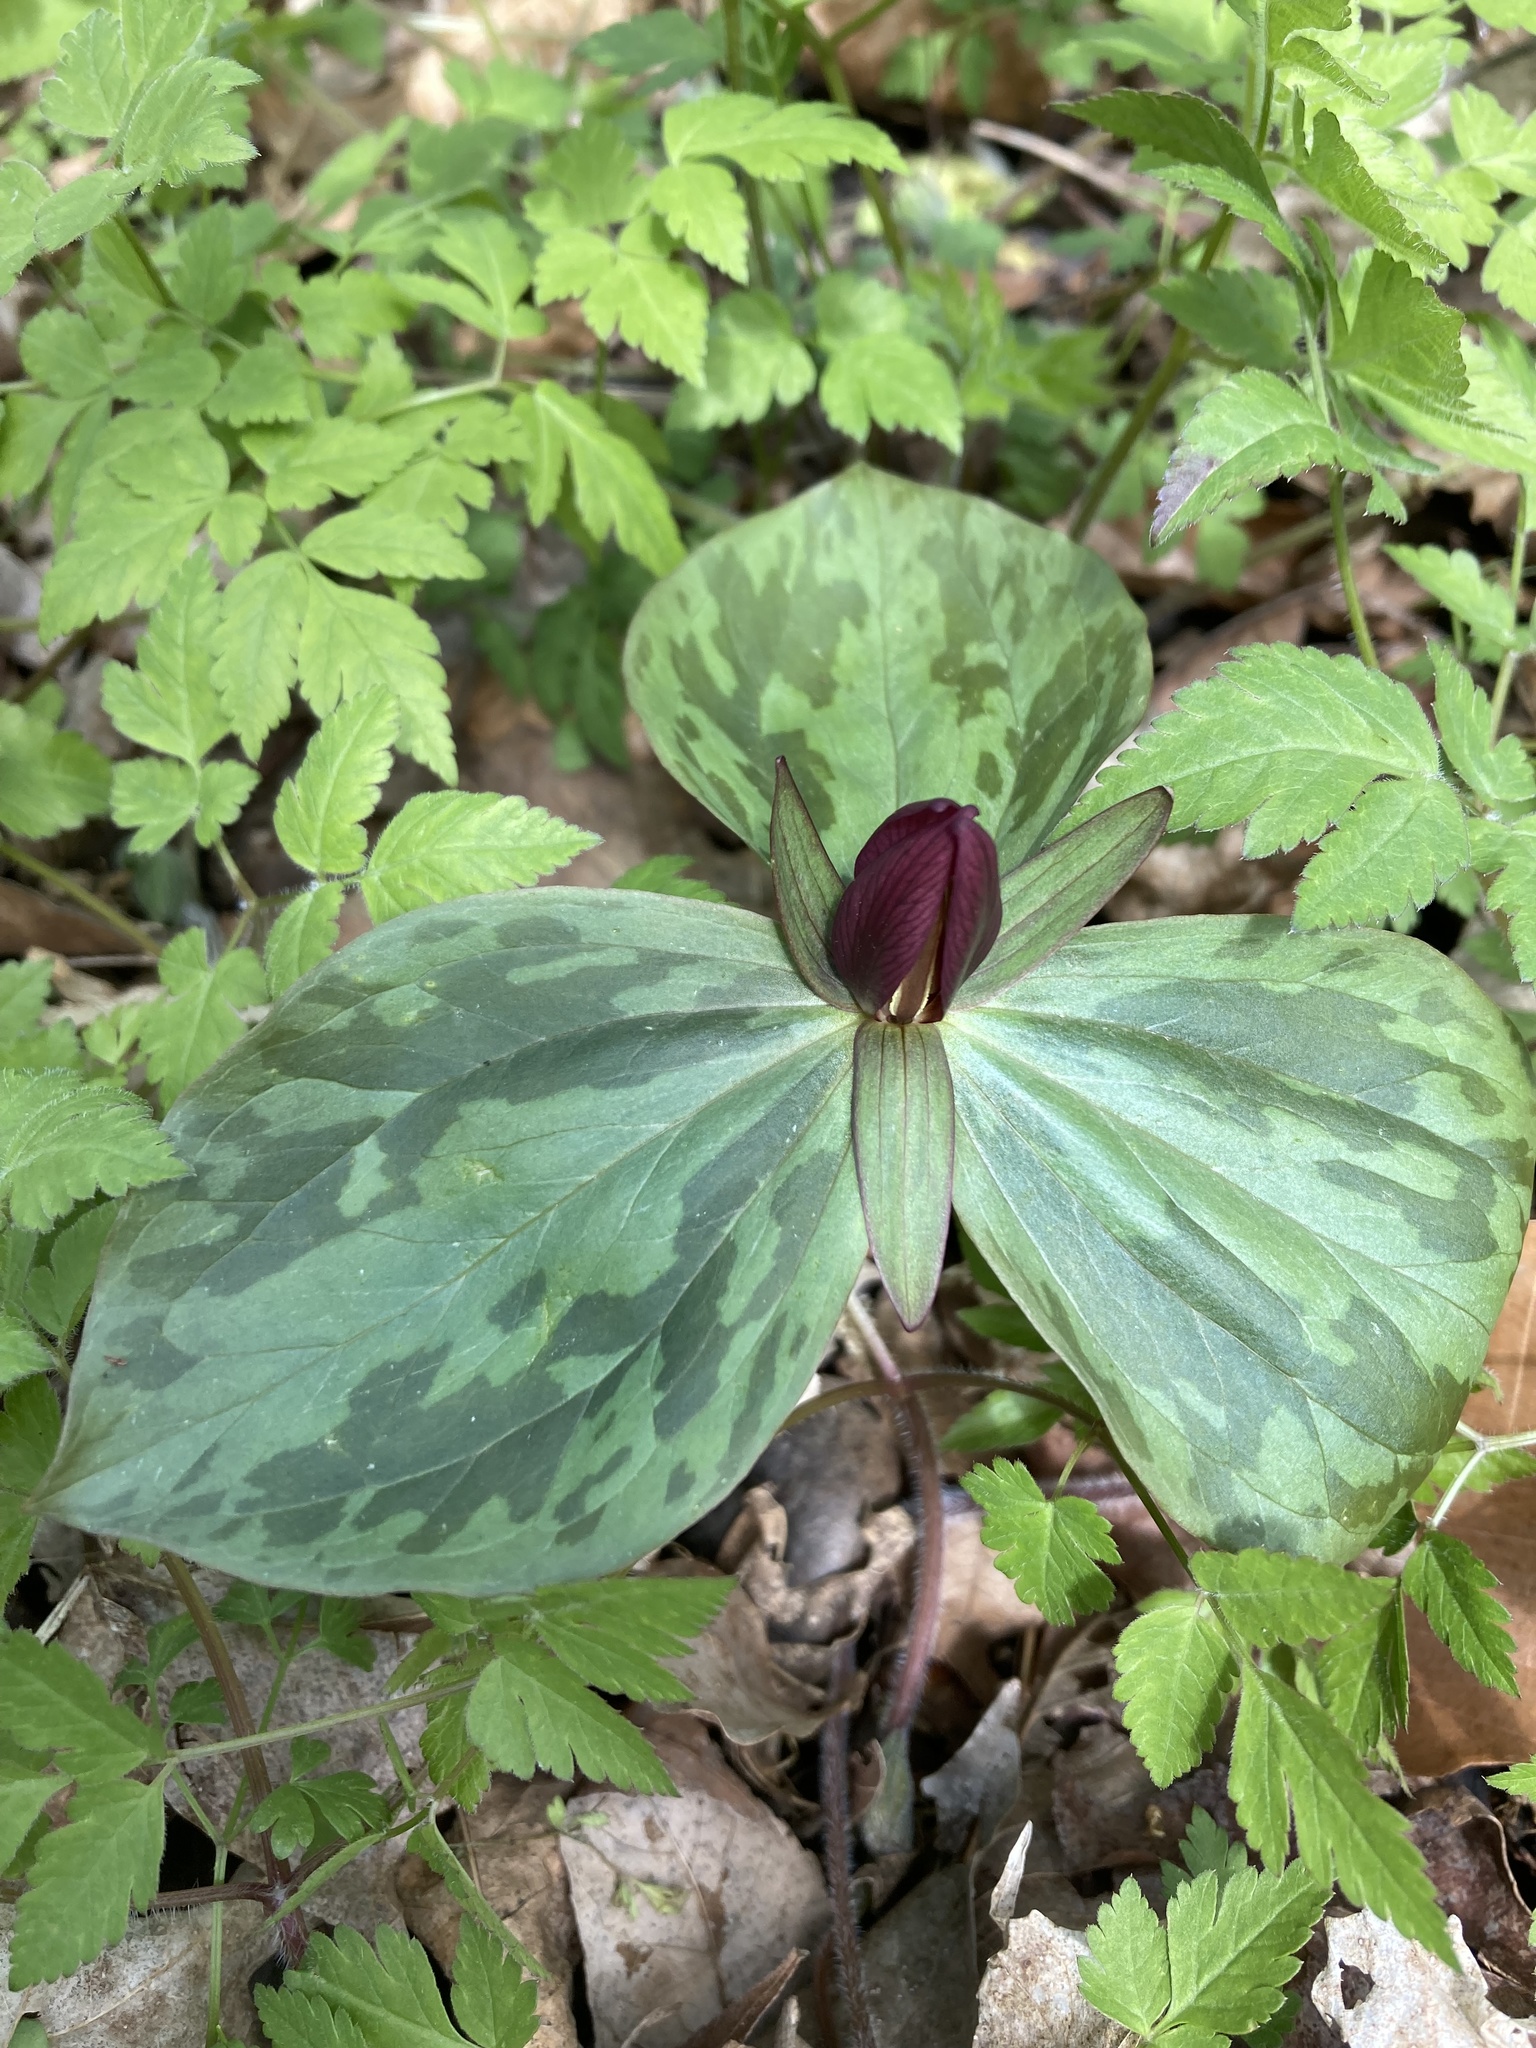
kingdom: Plantae
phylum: Tracheophyta
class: Liliopsida
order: Liliales
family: Melanthiaceae
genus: Trillium
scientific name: Trillium sessile
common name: Sessile trillium
